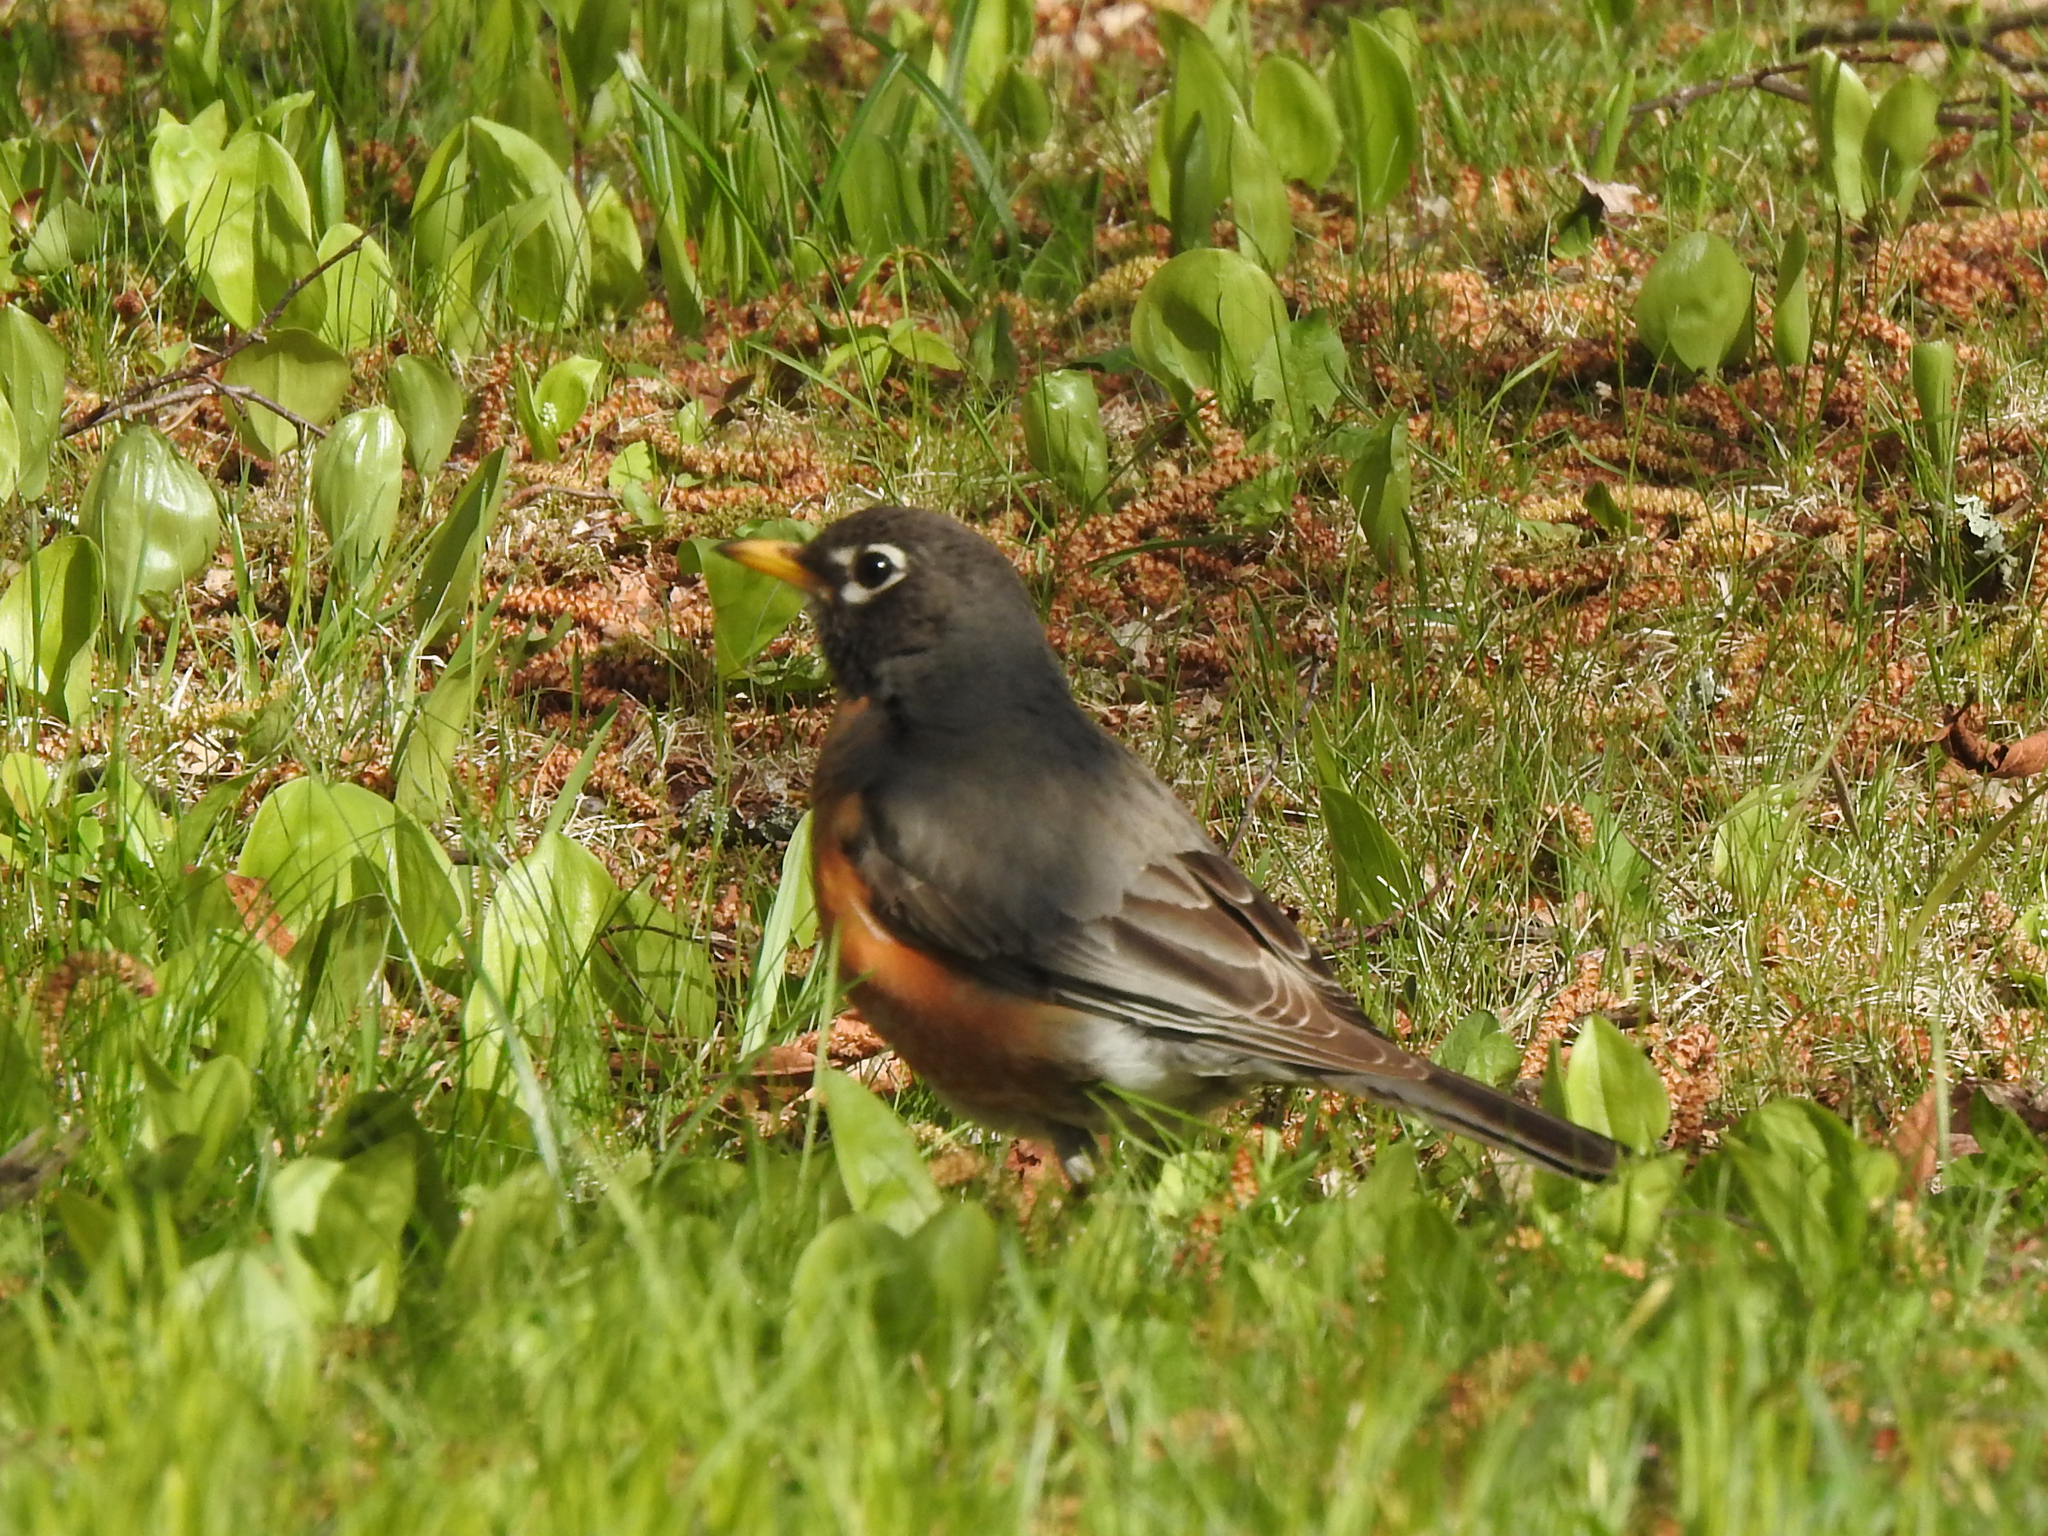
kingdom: Animalia
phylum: Chordata
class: Aves
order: Passeriformes
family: Turdidae
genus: Turdus
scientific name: Turdus migratorius
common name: American robin
